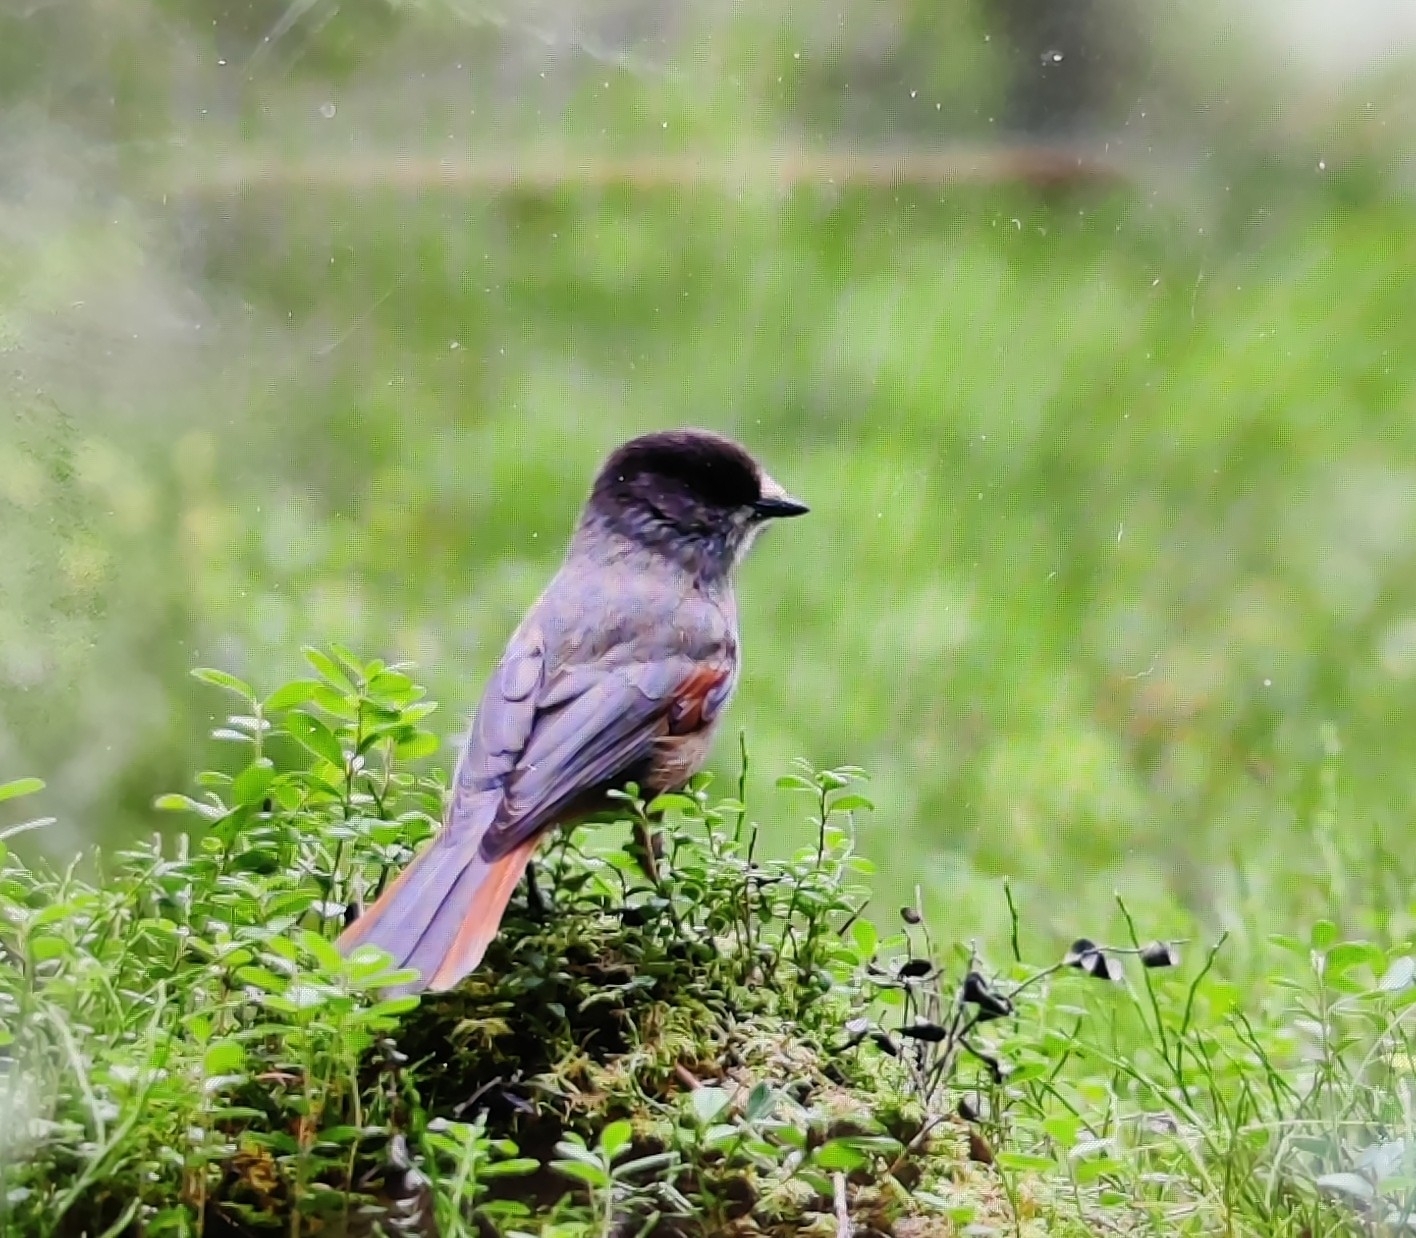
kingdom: Animalia
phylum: Chordata
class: Aves
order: Passeriformes
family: Corvidae
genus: Perisoreus
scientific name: Perisoreus infaustus
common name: Siberian jay
